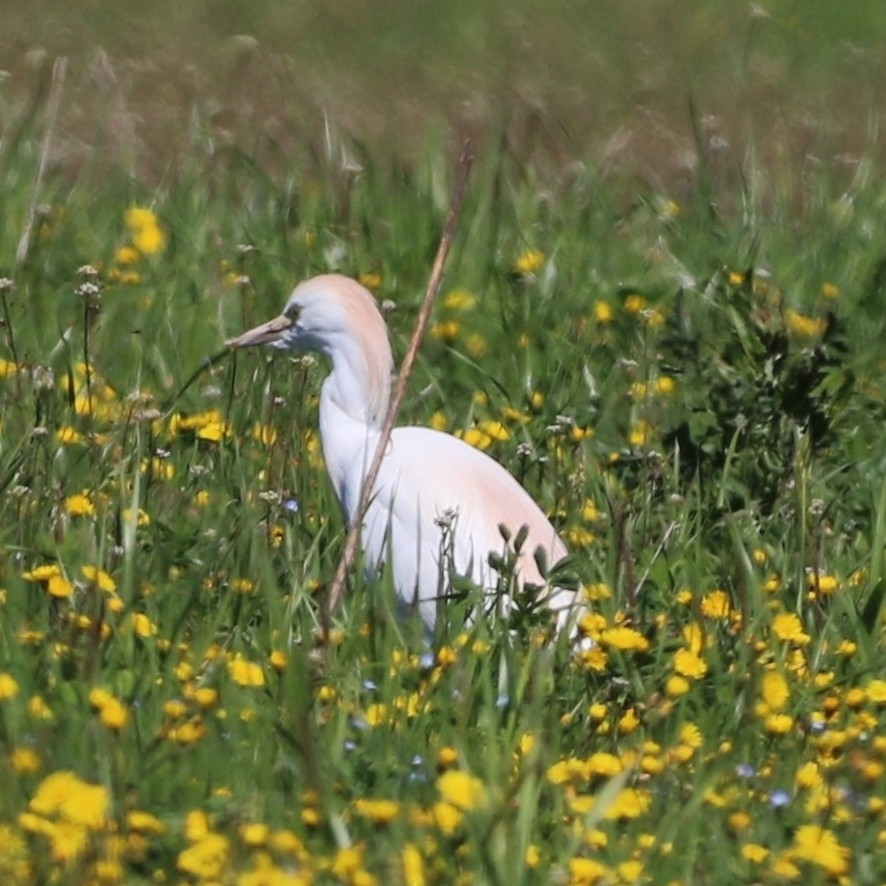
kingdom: Animalia
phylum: Chordata
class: Aves
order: Pelecaniformes
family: Ardeidae
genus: Bubulcus
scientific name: Bubulcus ibis
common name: Cattle egret
